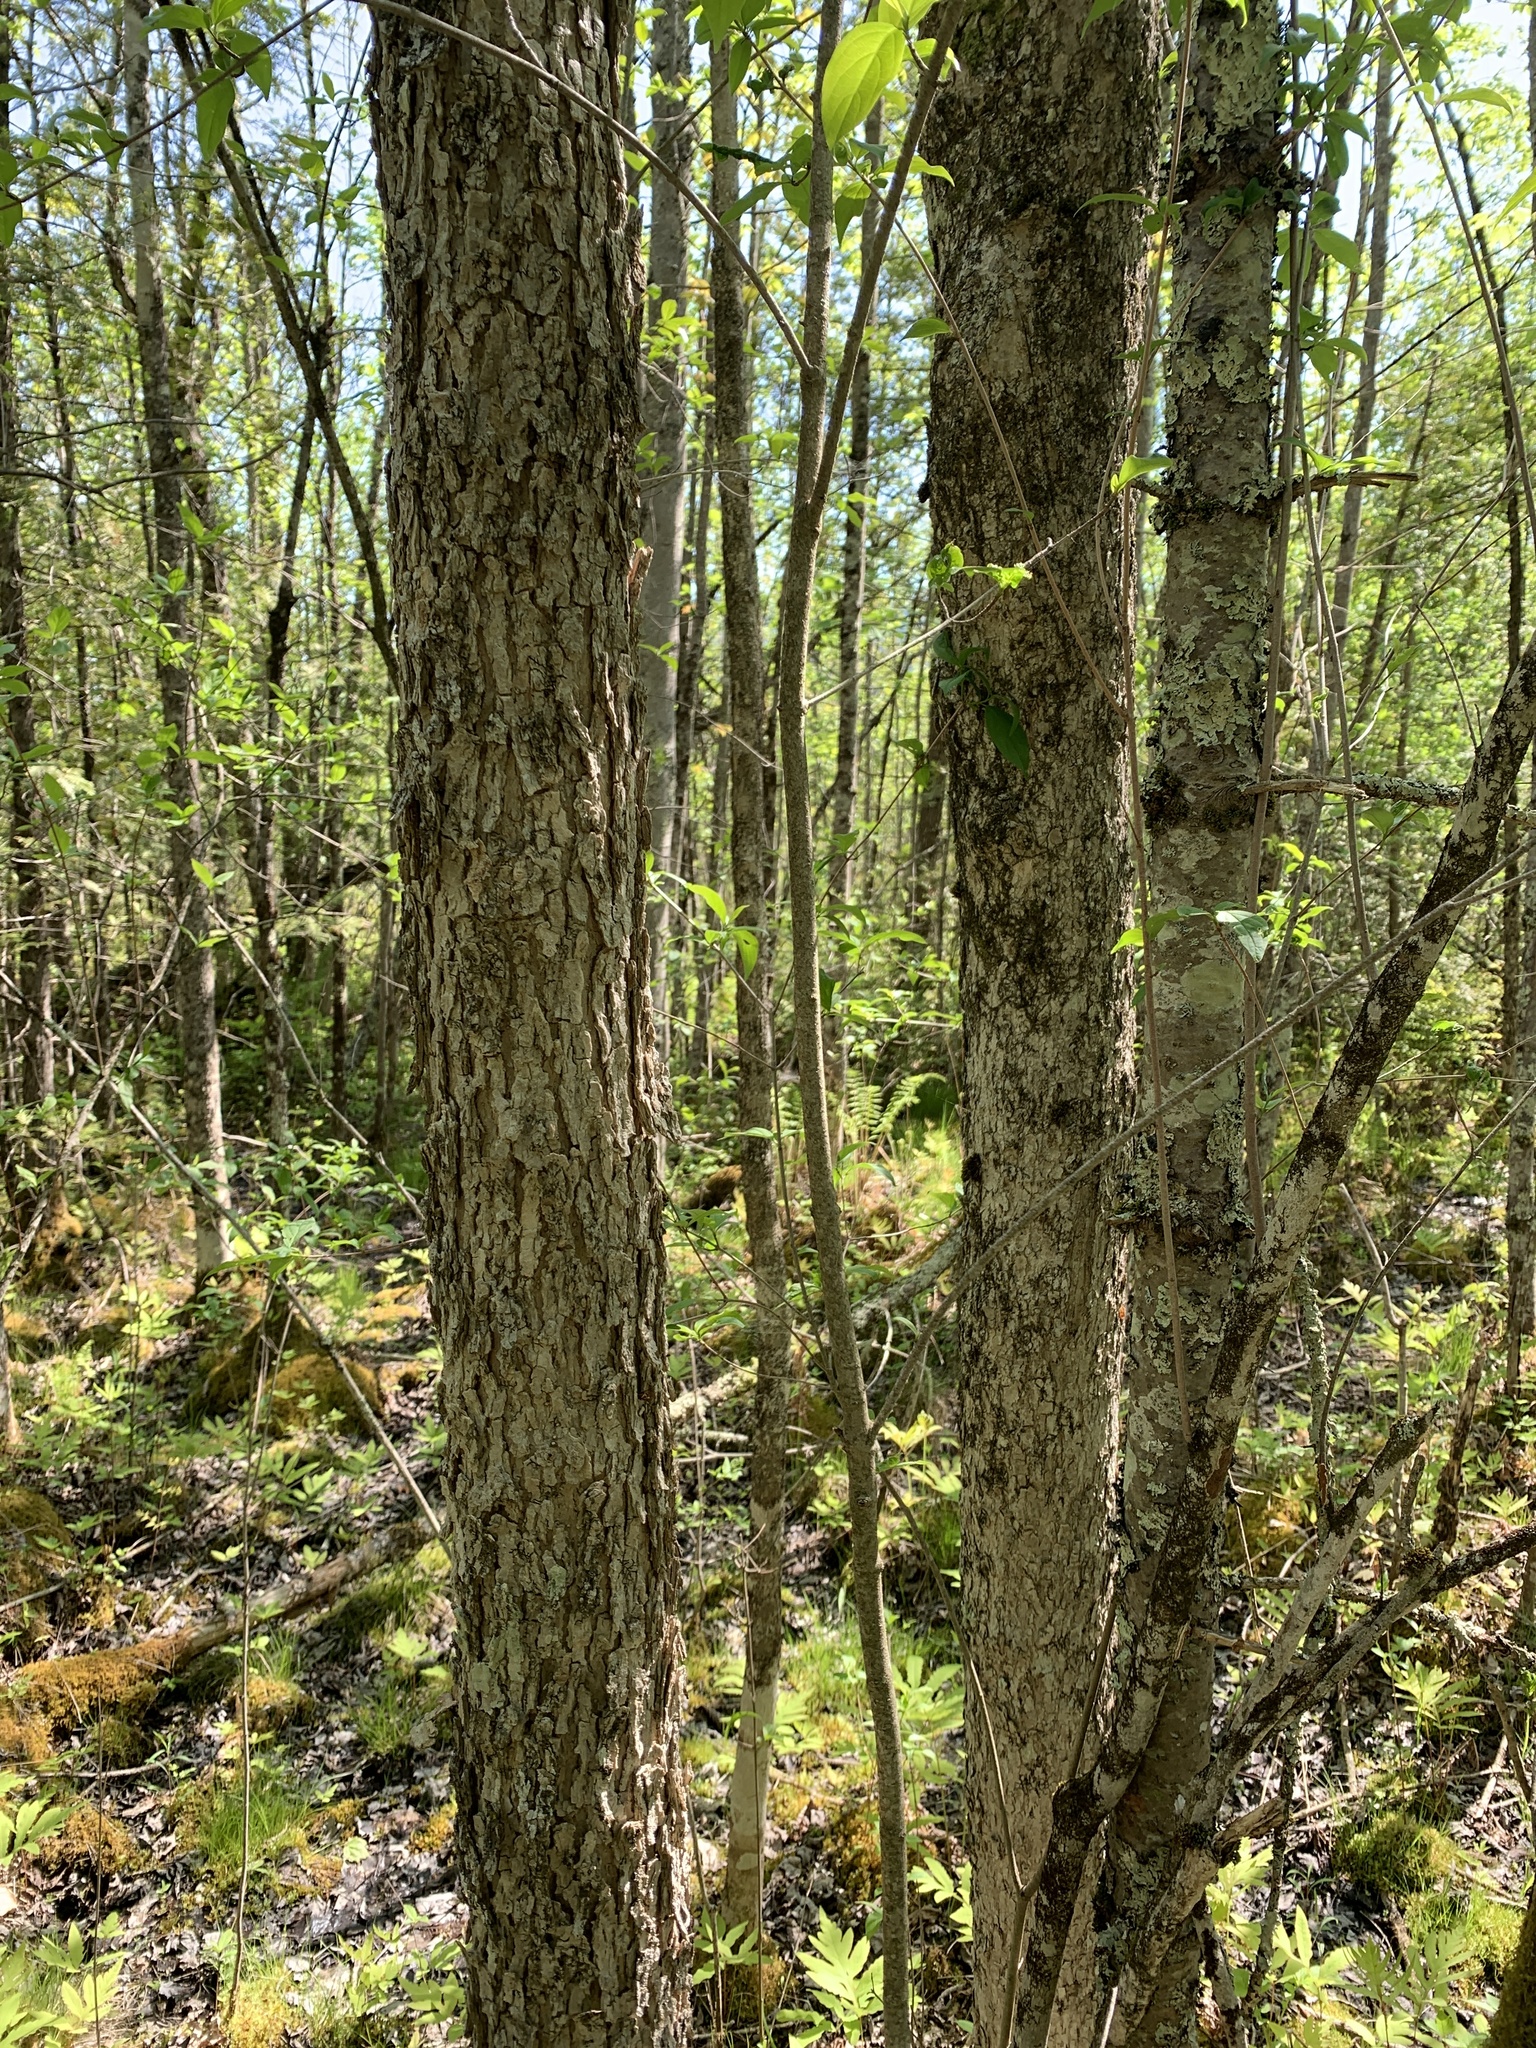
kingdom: Plantae
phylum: Tracheophyta
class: Magnoliopsida
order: Lamiales
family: Oleaceae
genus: Fraxinus
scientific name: Fraxinus nigra
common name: Black ash
